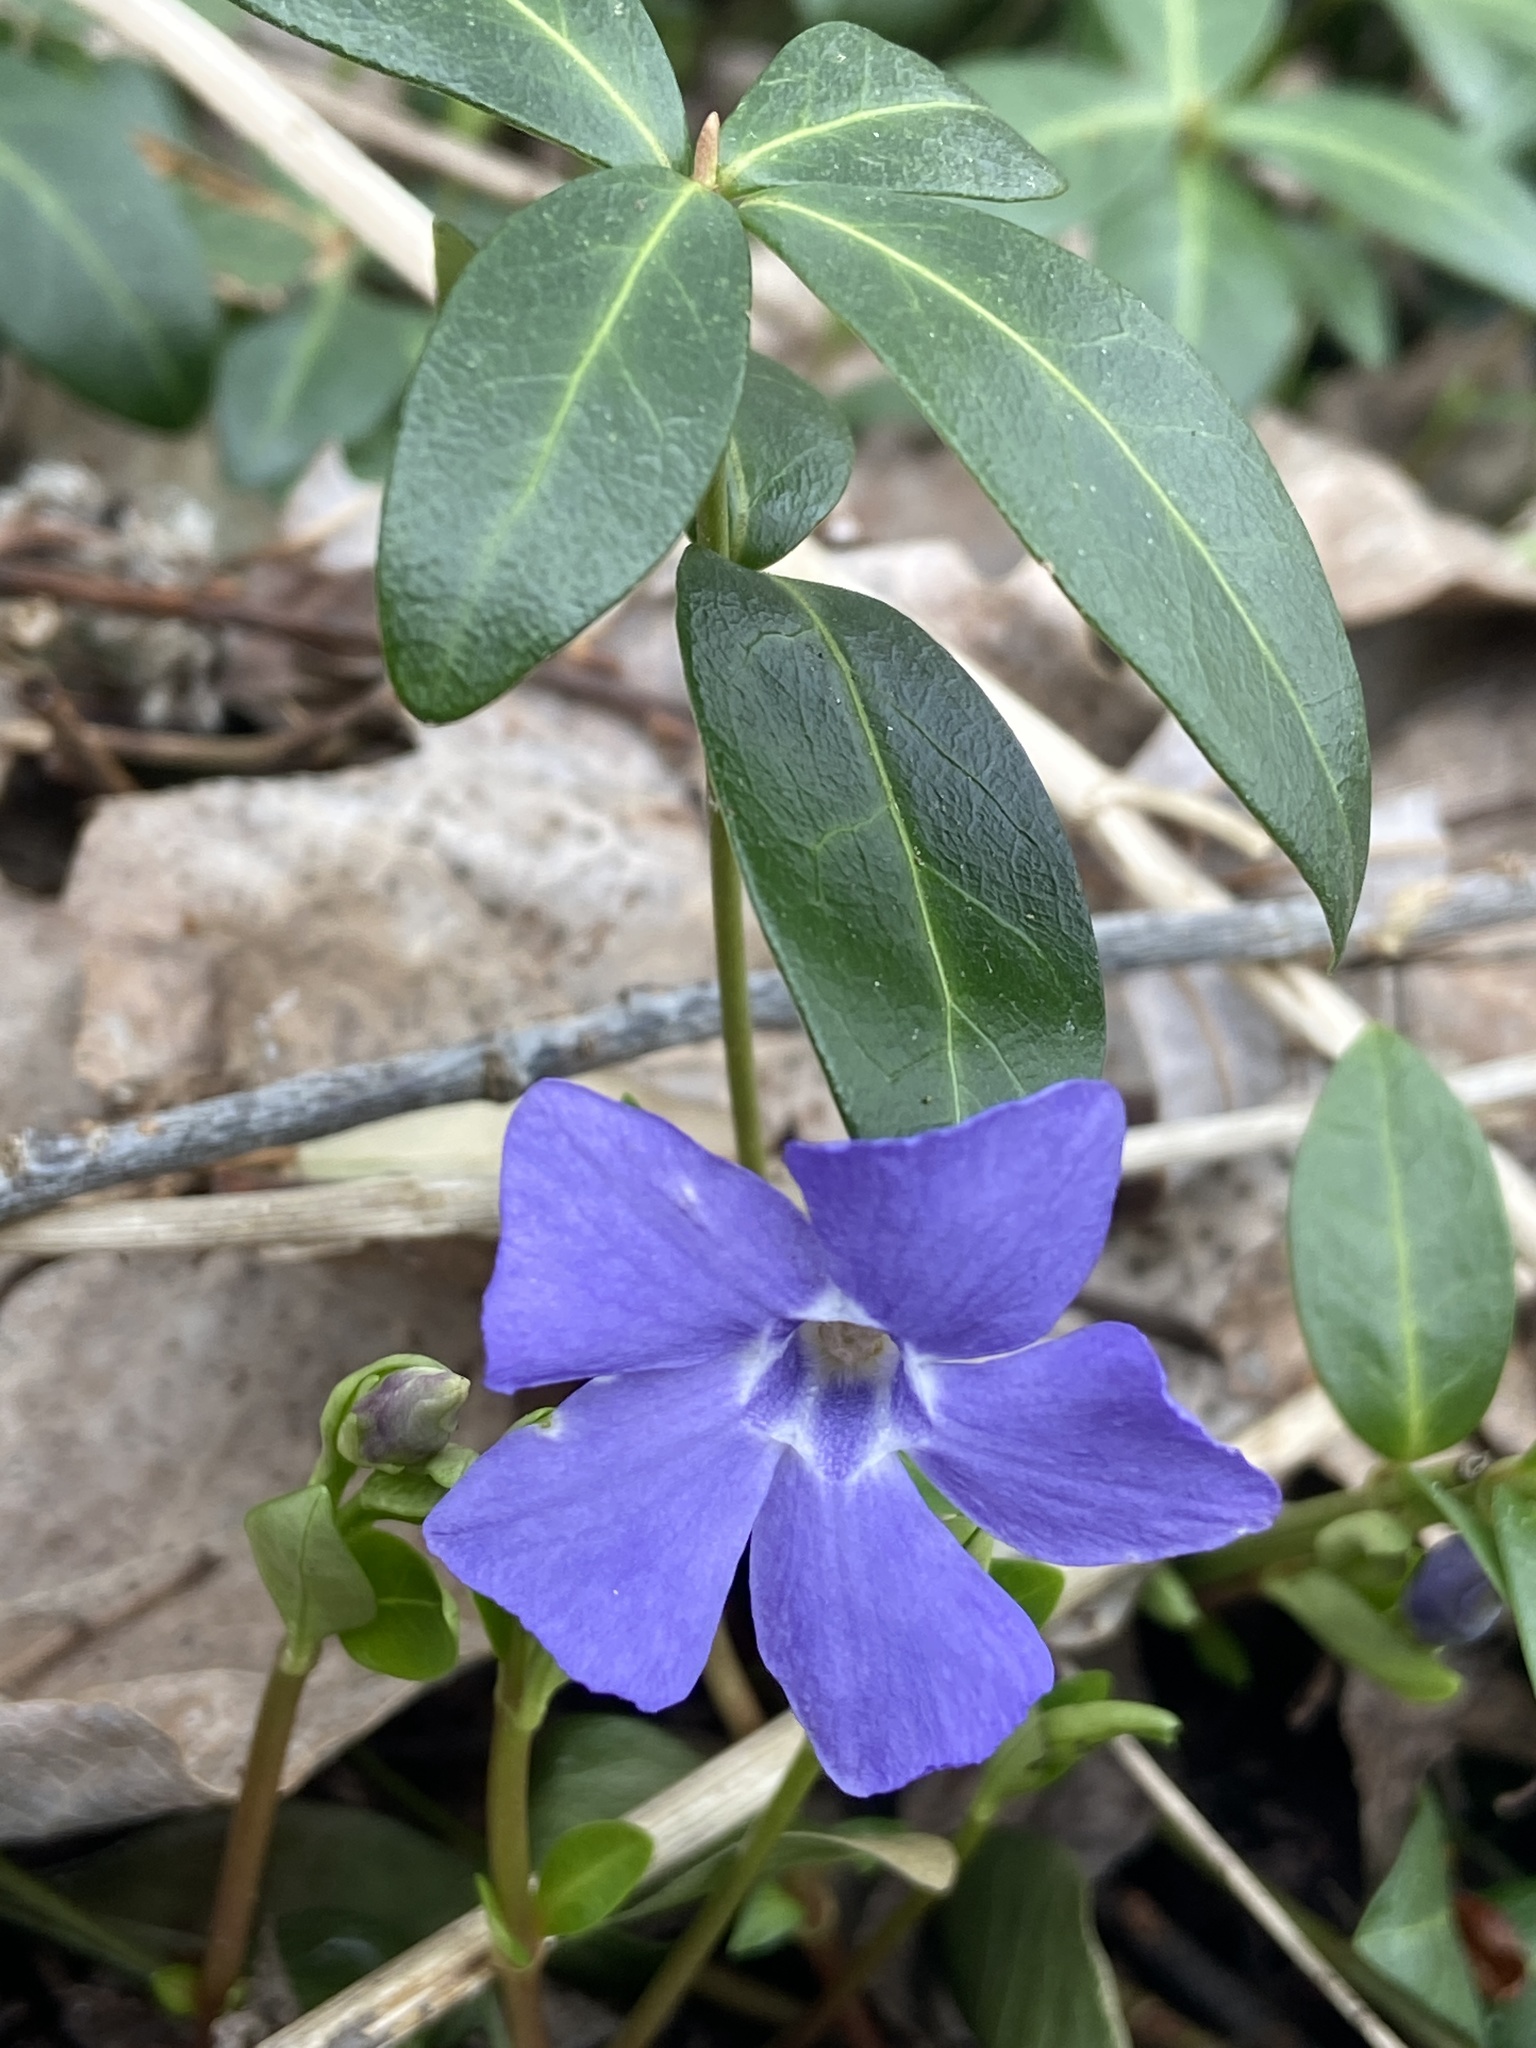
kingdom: Plantae
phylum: Tracheophyta
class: Magnoliopsida
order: Gentianales
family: Apocynaceae
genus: Vinca
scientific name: Vinca minor
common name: Lesser periwinkle
